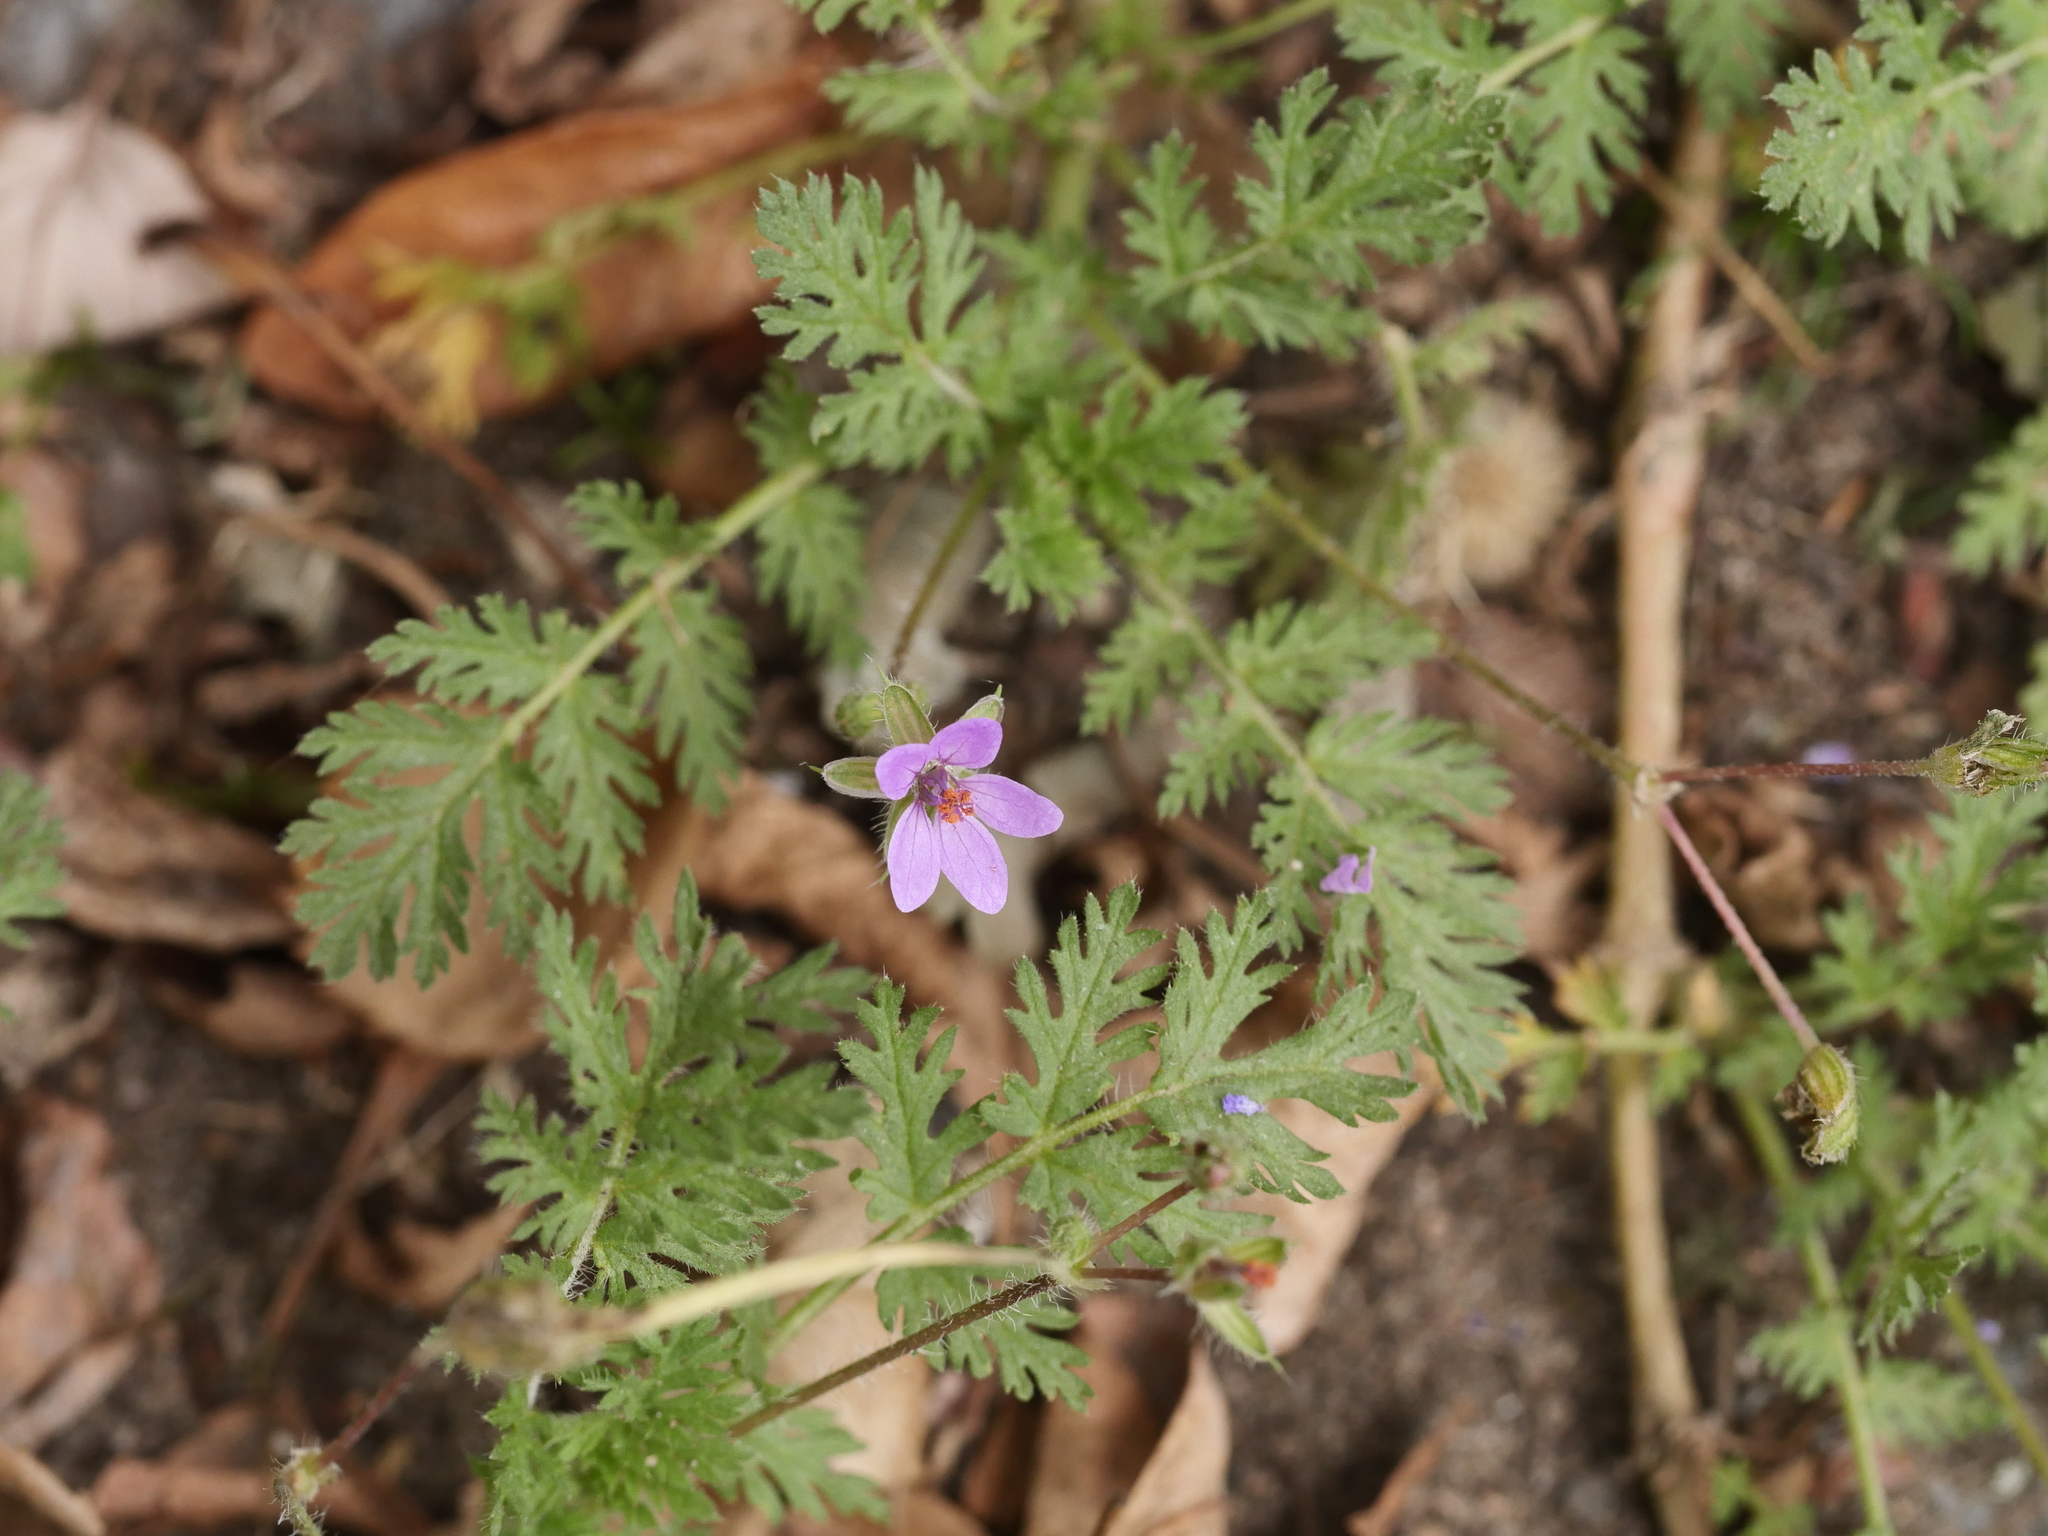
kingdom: Plantae
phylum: Tracheophyta
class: Magnoliopsida
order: Geraniales
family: Geraniaceae
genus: Erodium
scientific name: Erodium cicutarium
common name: Common stork's-bill
